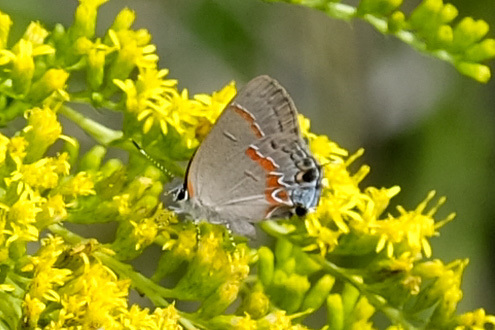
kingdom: Animalia
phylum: Arthropoda
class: Insecta
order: Lepidoptera
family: Lycaenidae
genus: Calycopis
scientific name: Calycopis cecrops
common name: Red-banded hairstreak
